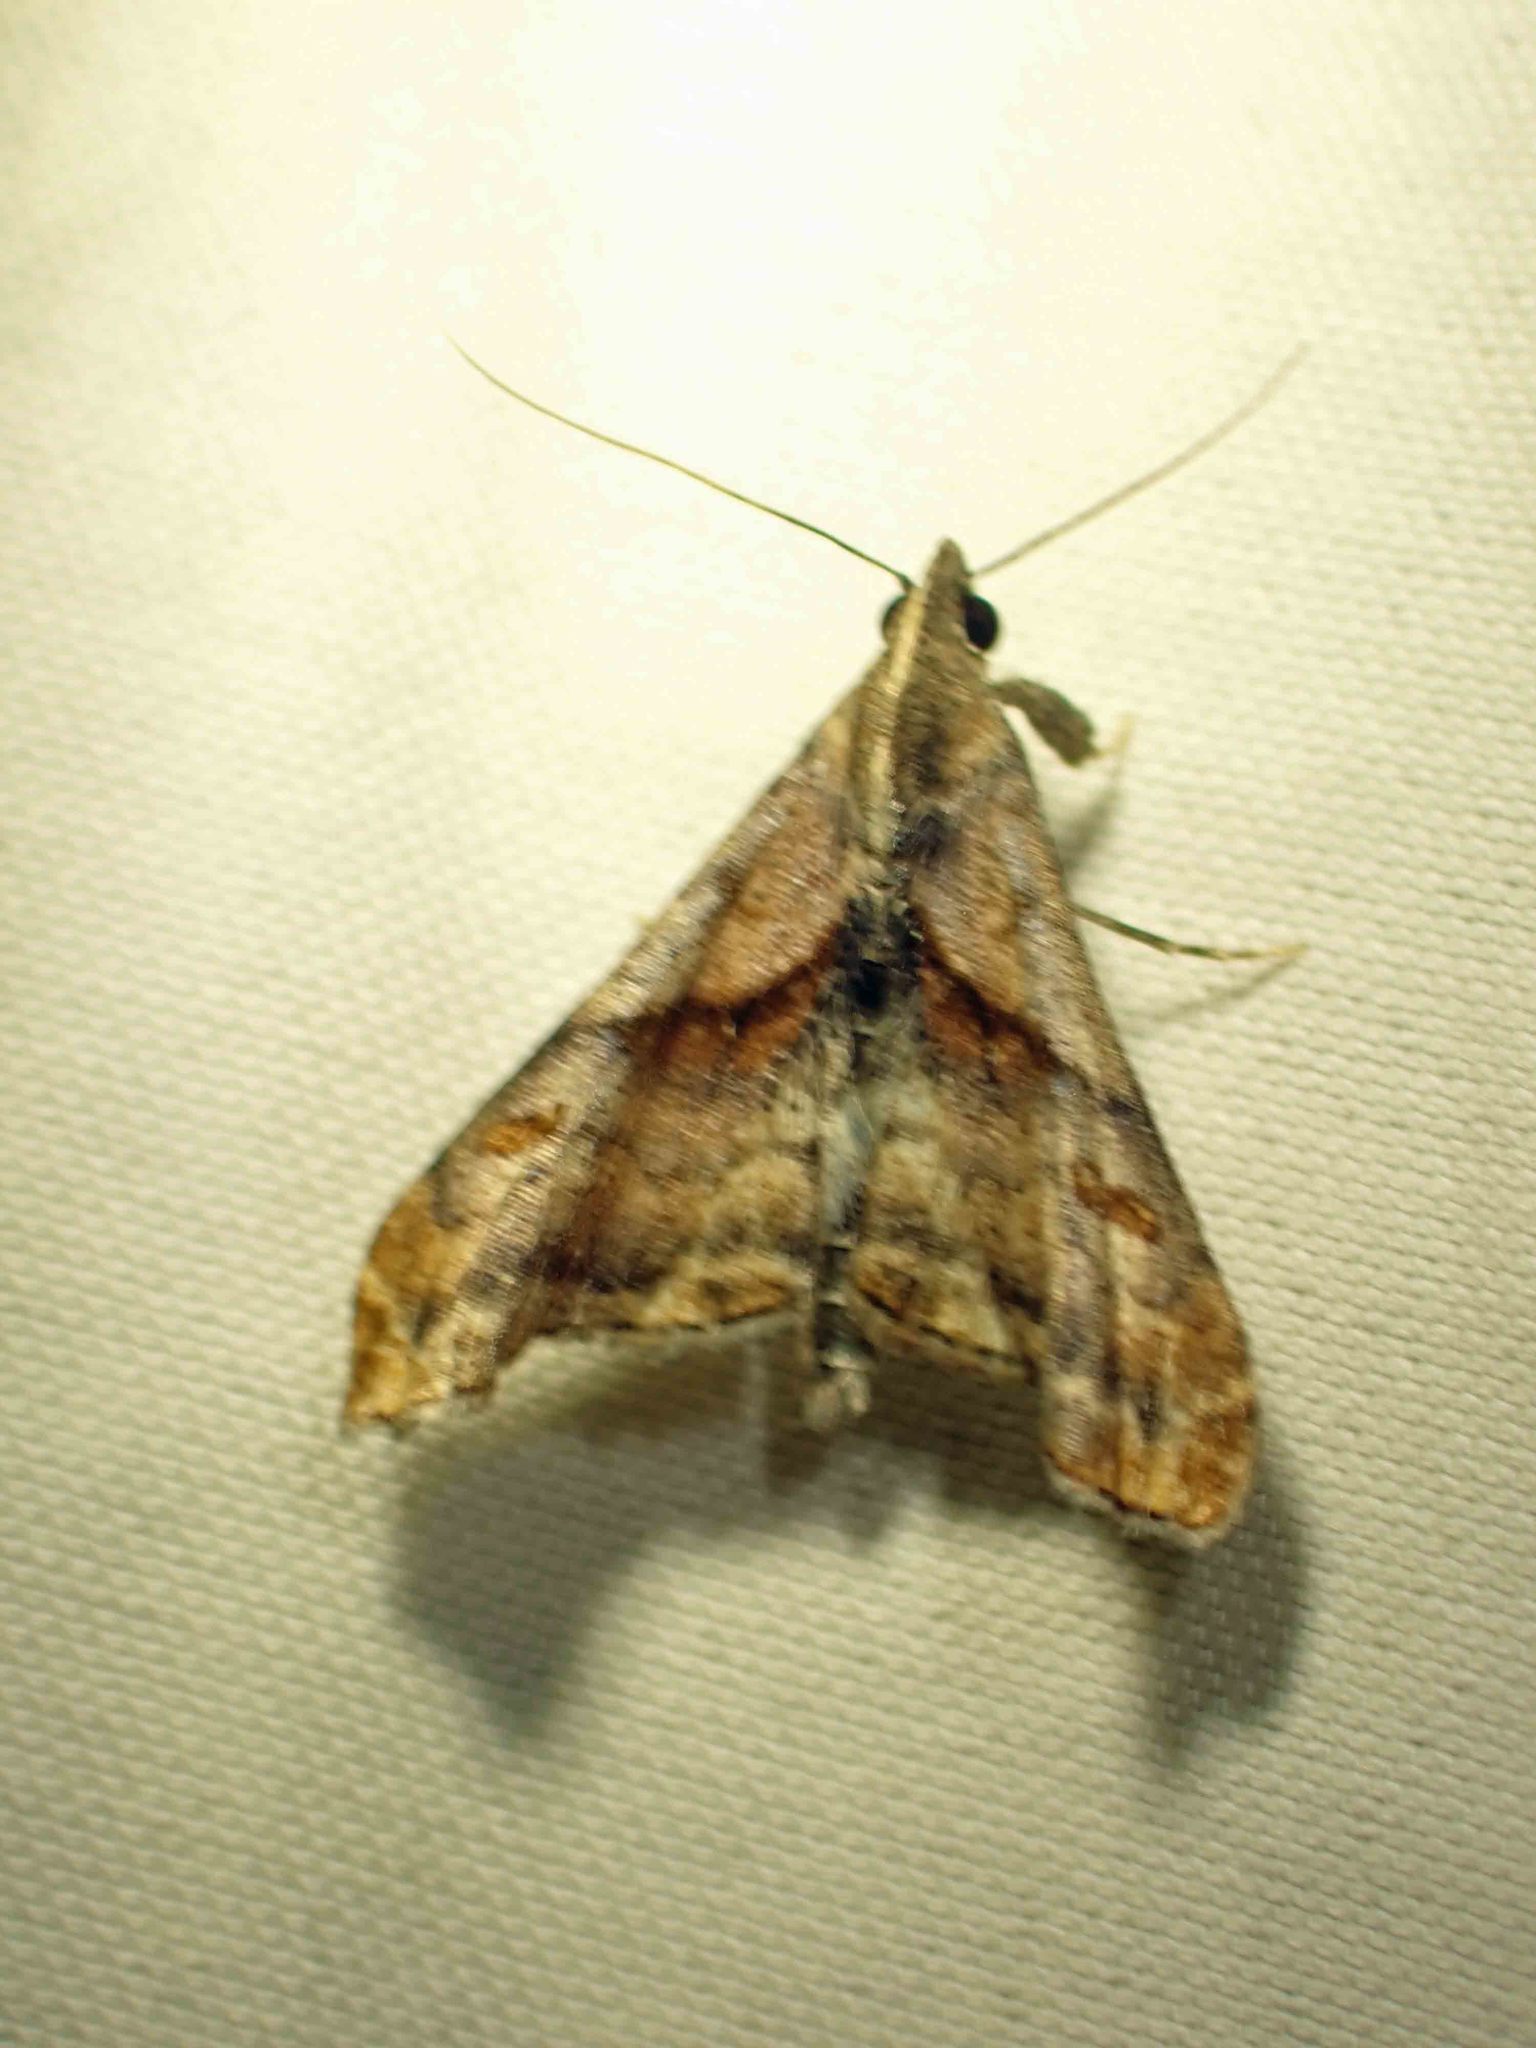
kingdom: Animalia
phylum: Arthropoda
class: Insecta
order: Lepidoptera
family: Erebidae
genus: Palthis
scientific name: Palthis angulalis
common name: Dark-spotted palthis moth
